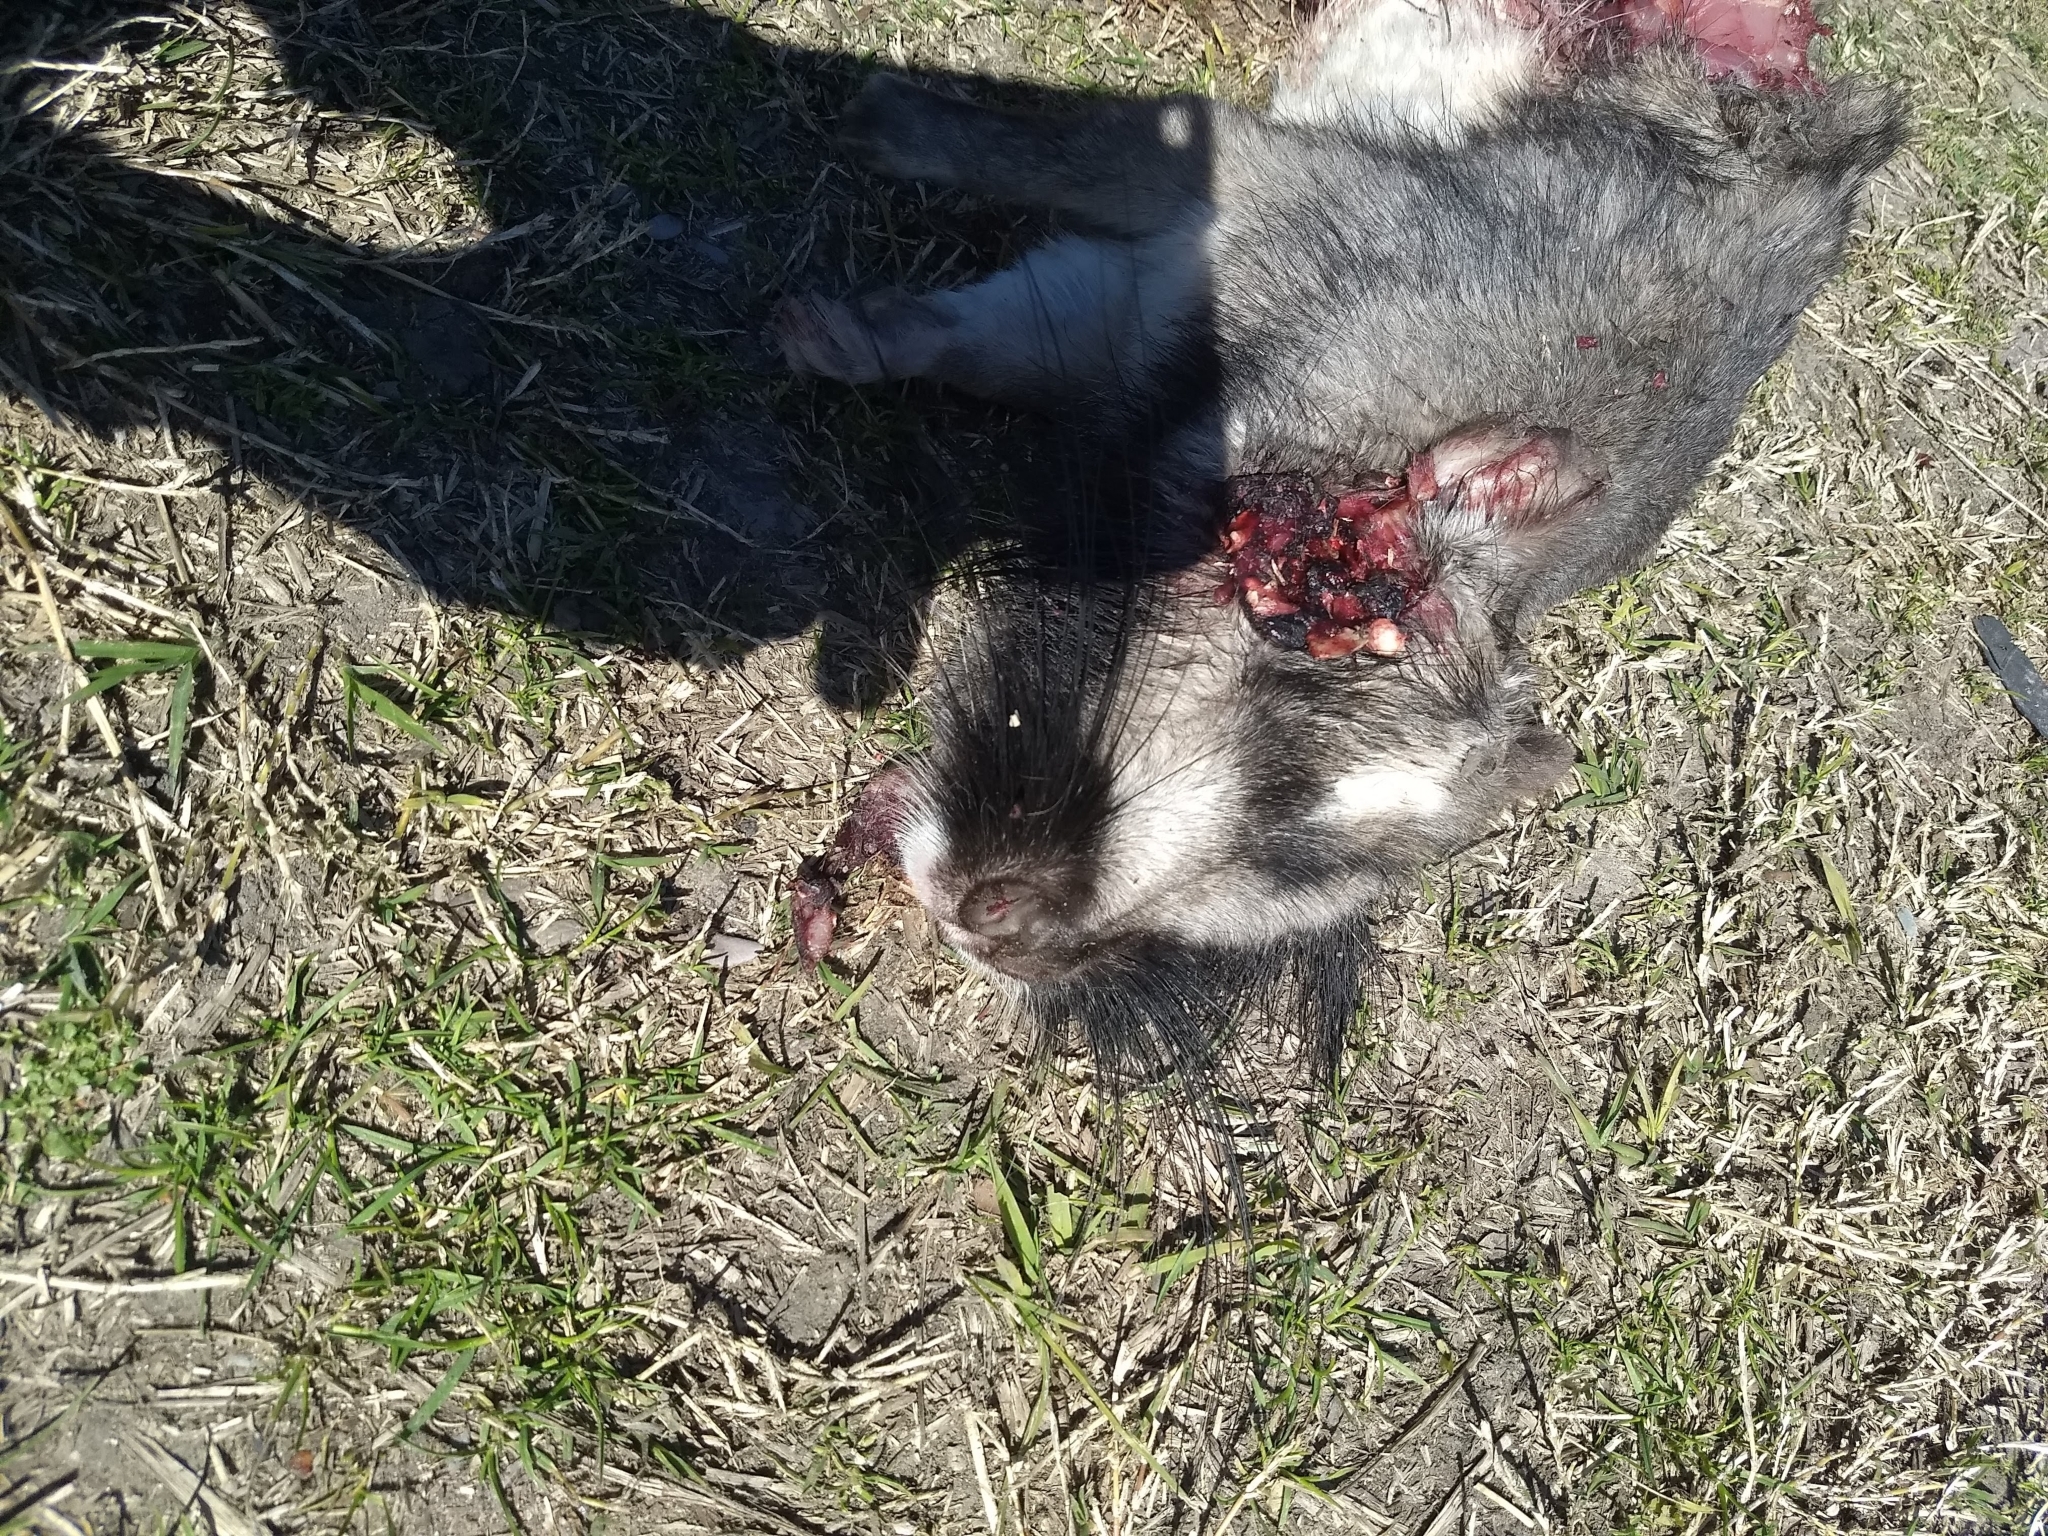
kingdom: Animalia
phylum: Chordata
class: Mammalia
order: Rodentia
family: Chinchillidae
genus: Lagostomus
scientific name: Lagostomus maximus
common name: Plains viscacha
